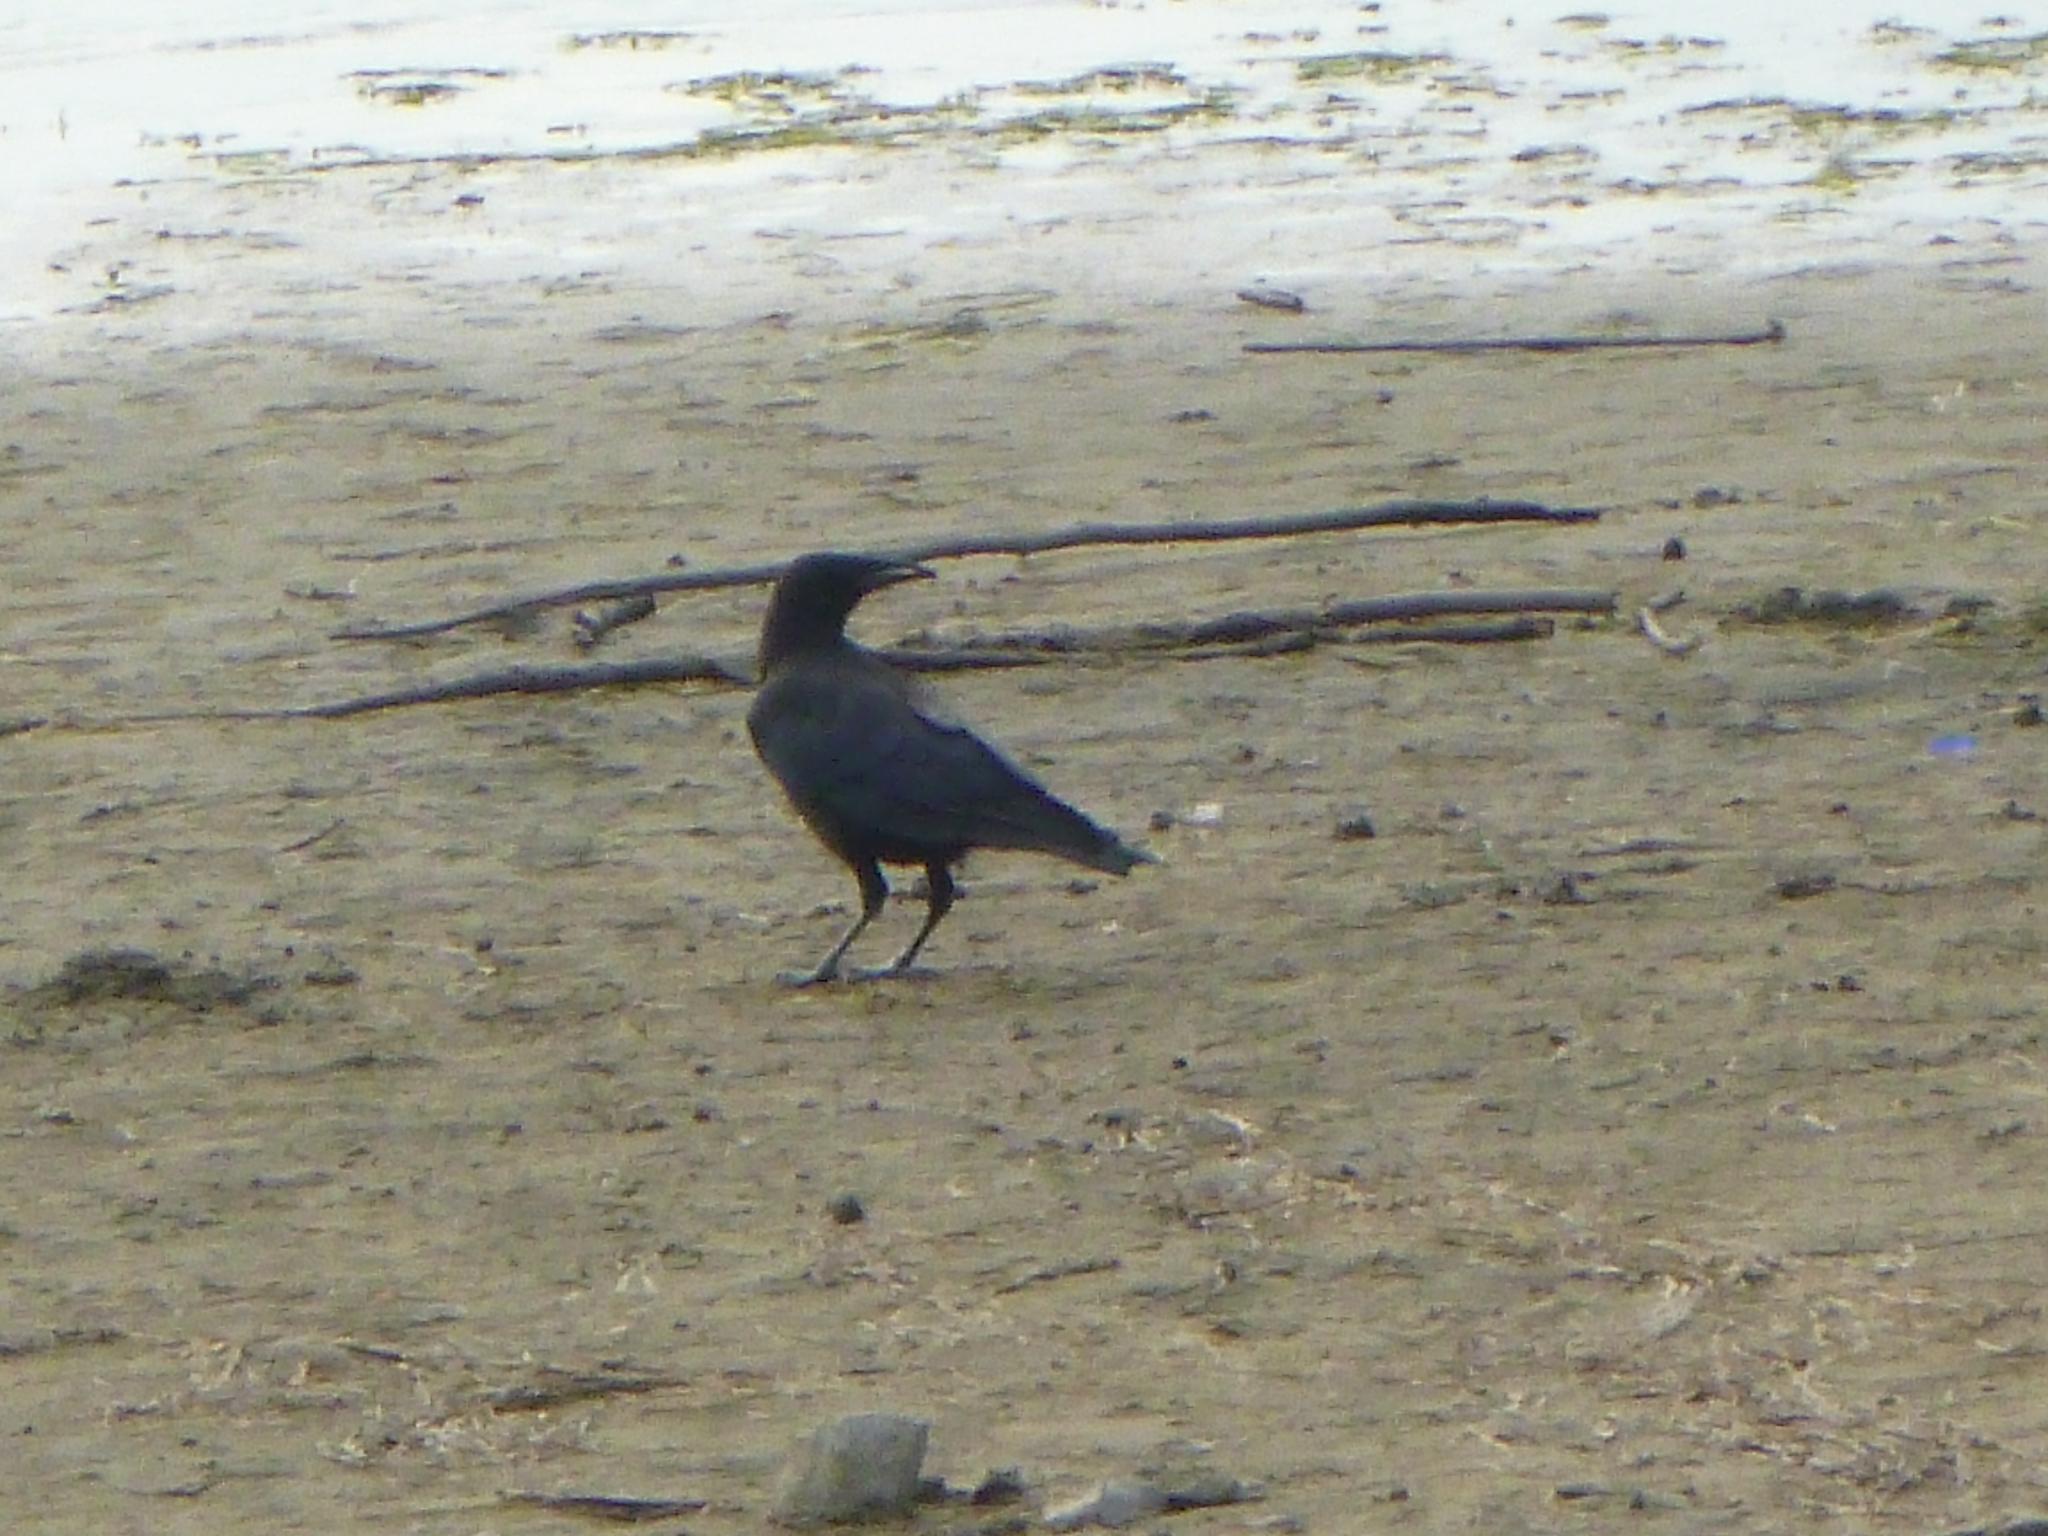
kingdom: Animalia
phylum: Chordata
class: Aves
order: Passeriformes
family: Corvidae
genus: Corvus
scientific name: Corvus brachyrhynchos
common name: American crow
